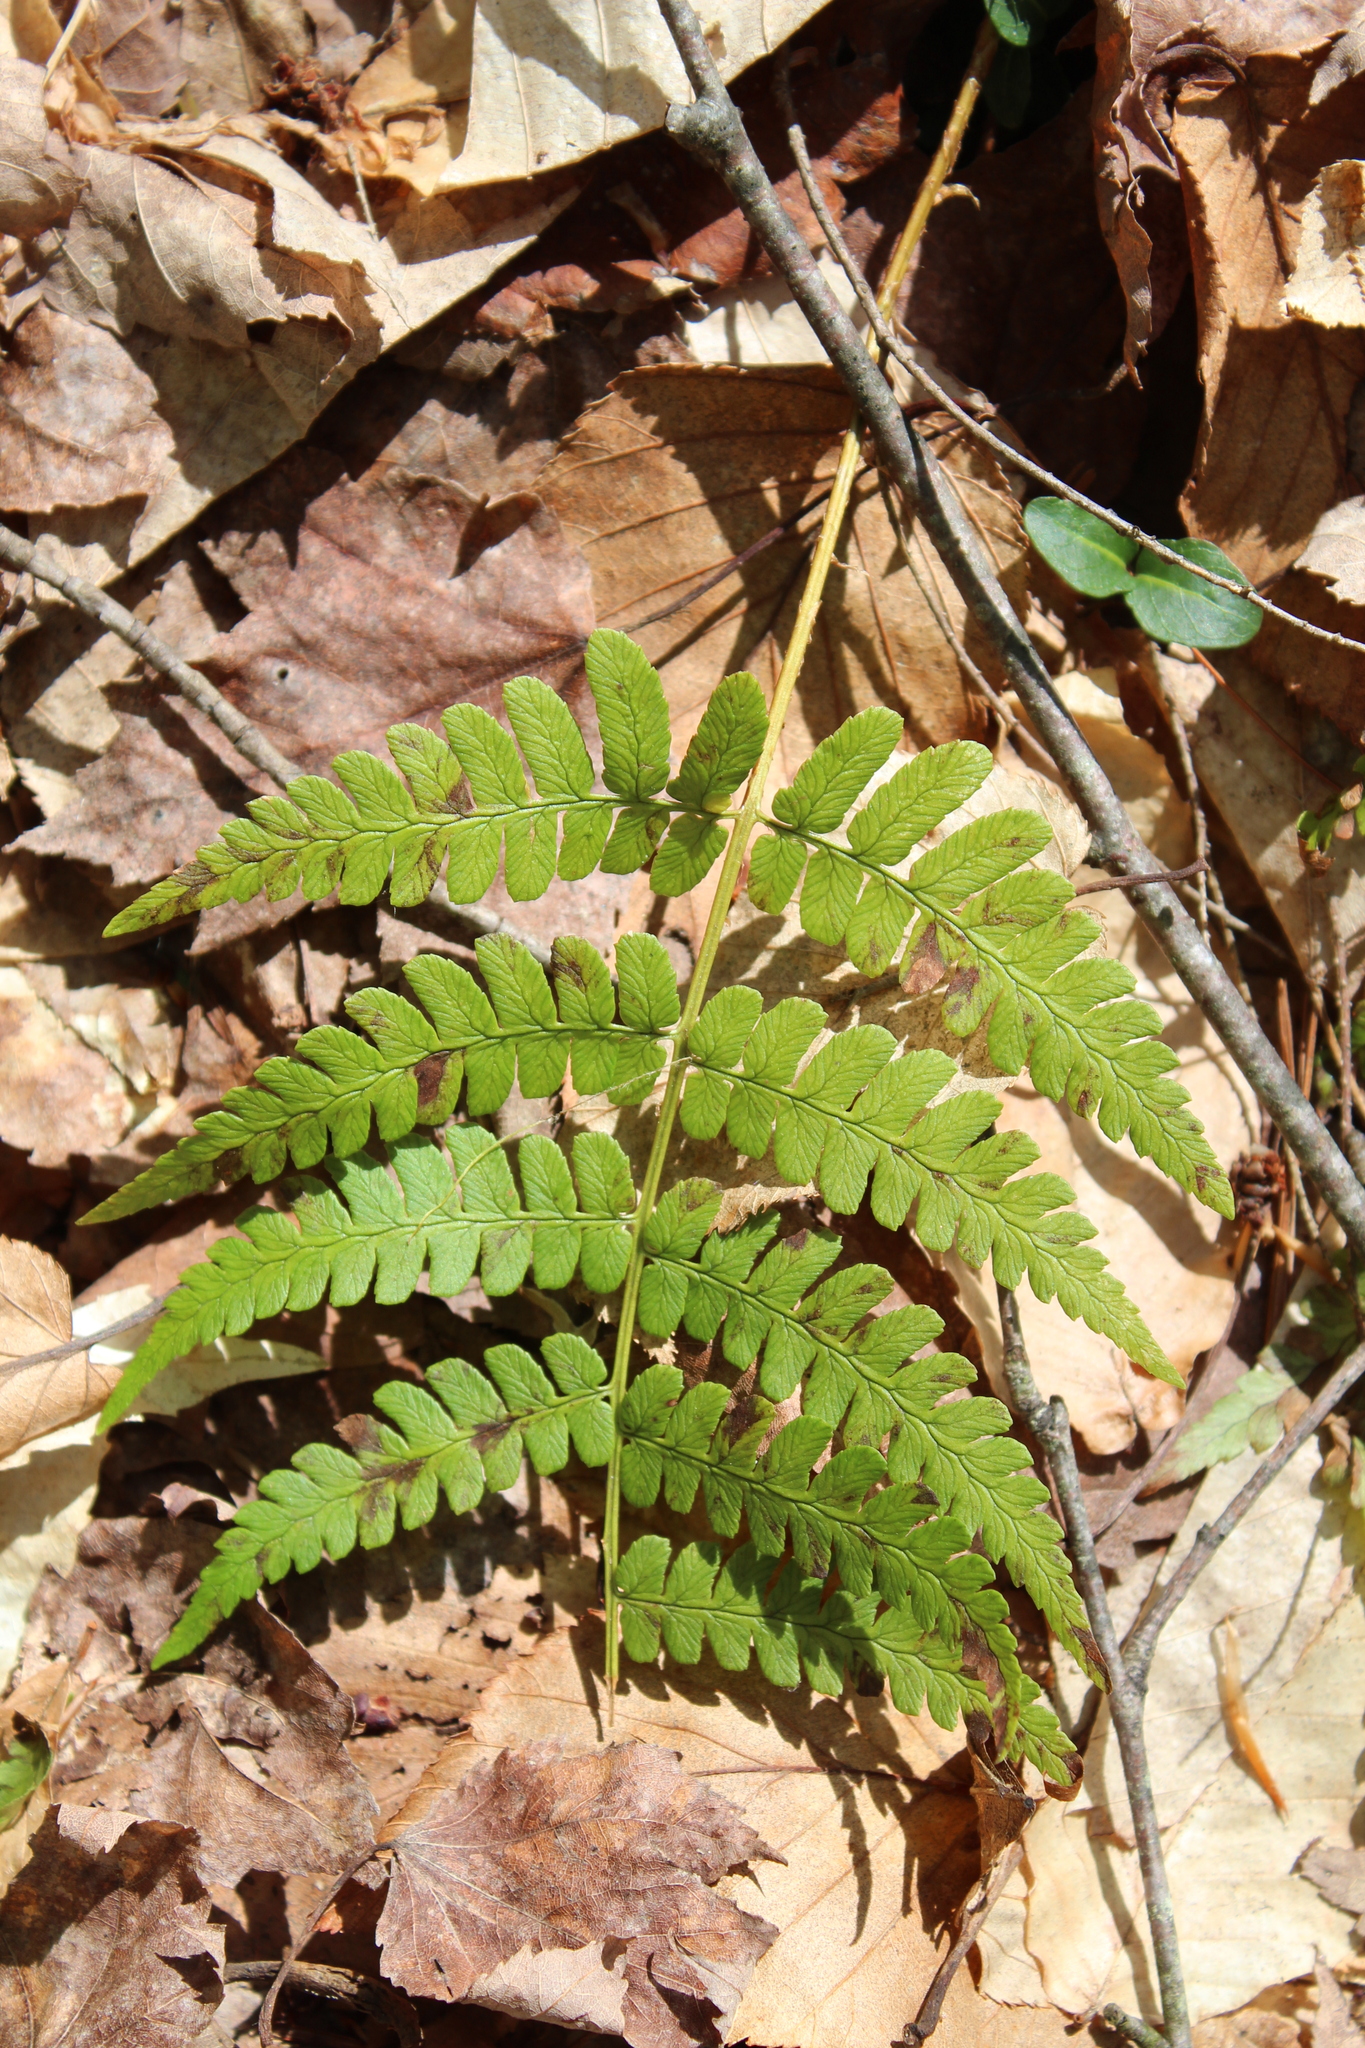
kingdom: Plantae
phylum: Tracheophyta
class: Polypodiopsida
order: Polypodiales
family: Dryopteridaceae
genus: Dryopteris
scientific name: Dryopteris marginalis
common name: Marginal wood fern
